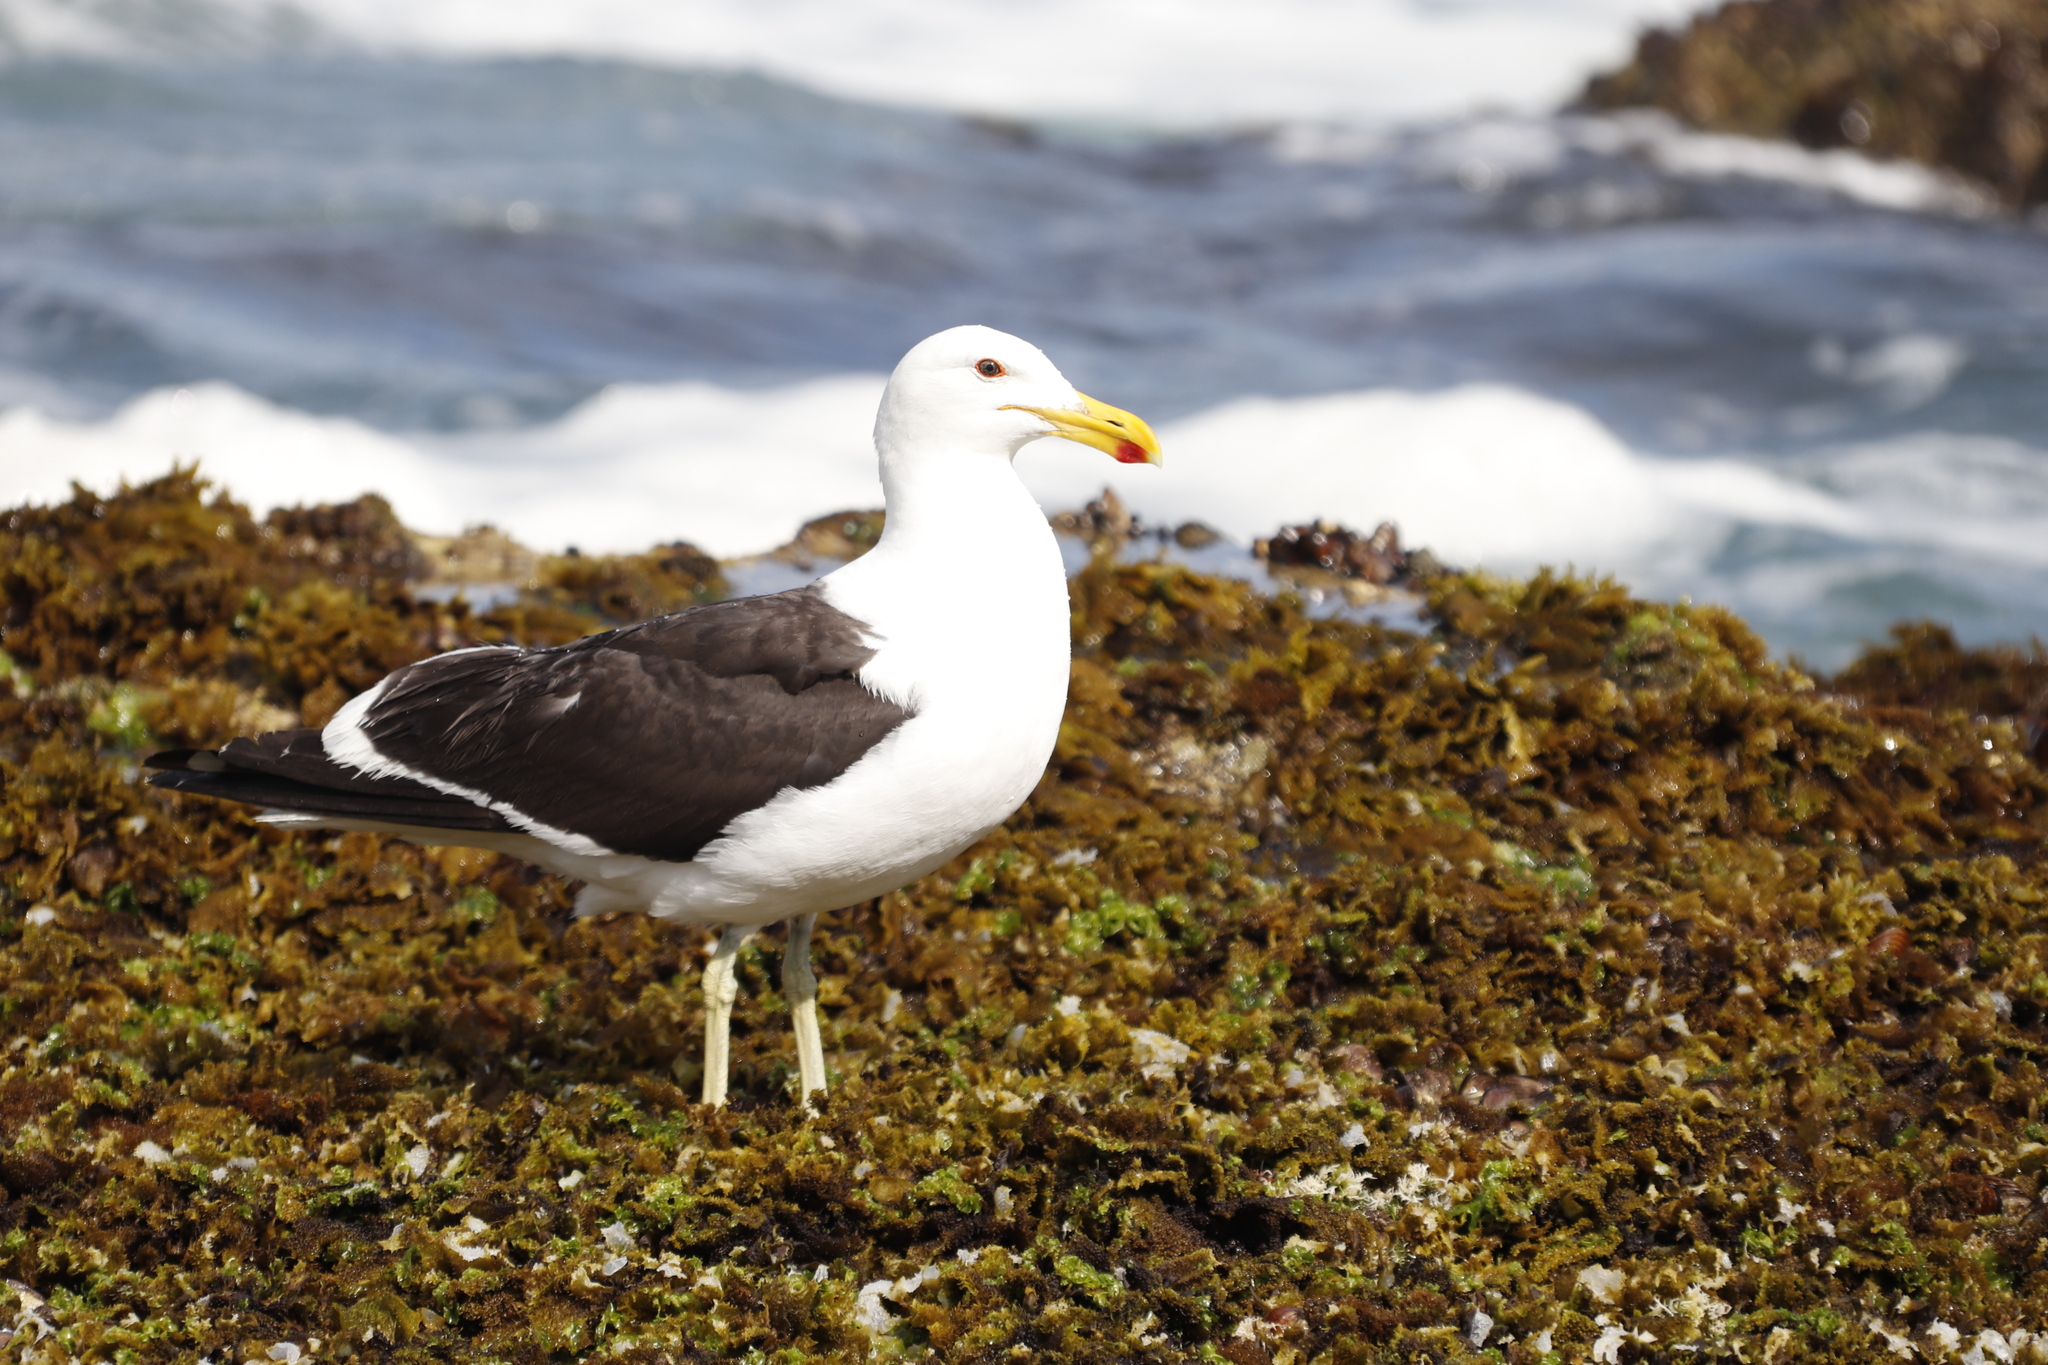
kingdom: Animalia
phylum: Chordata
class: Aves
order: Charadriiformes
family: Laridae
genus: Larus
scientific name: Larus dominicanus
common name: Kelp gull
